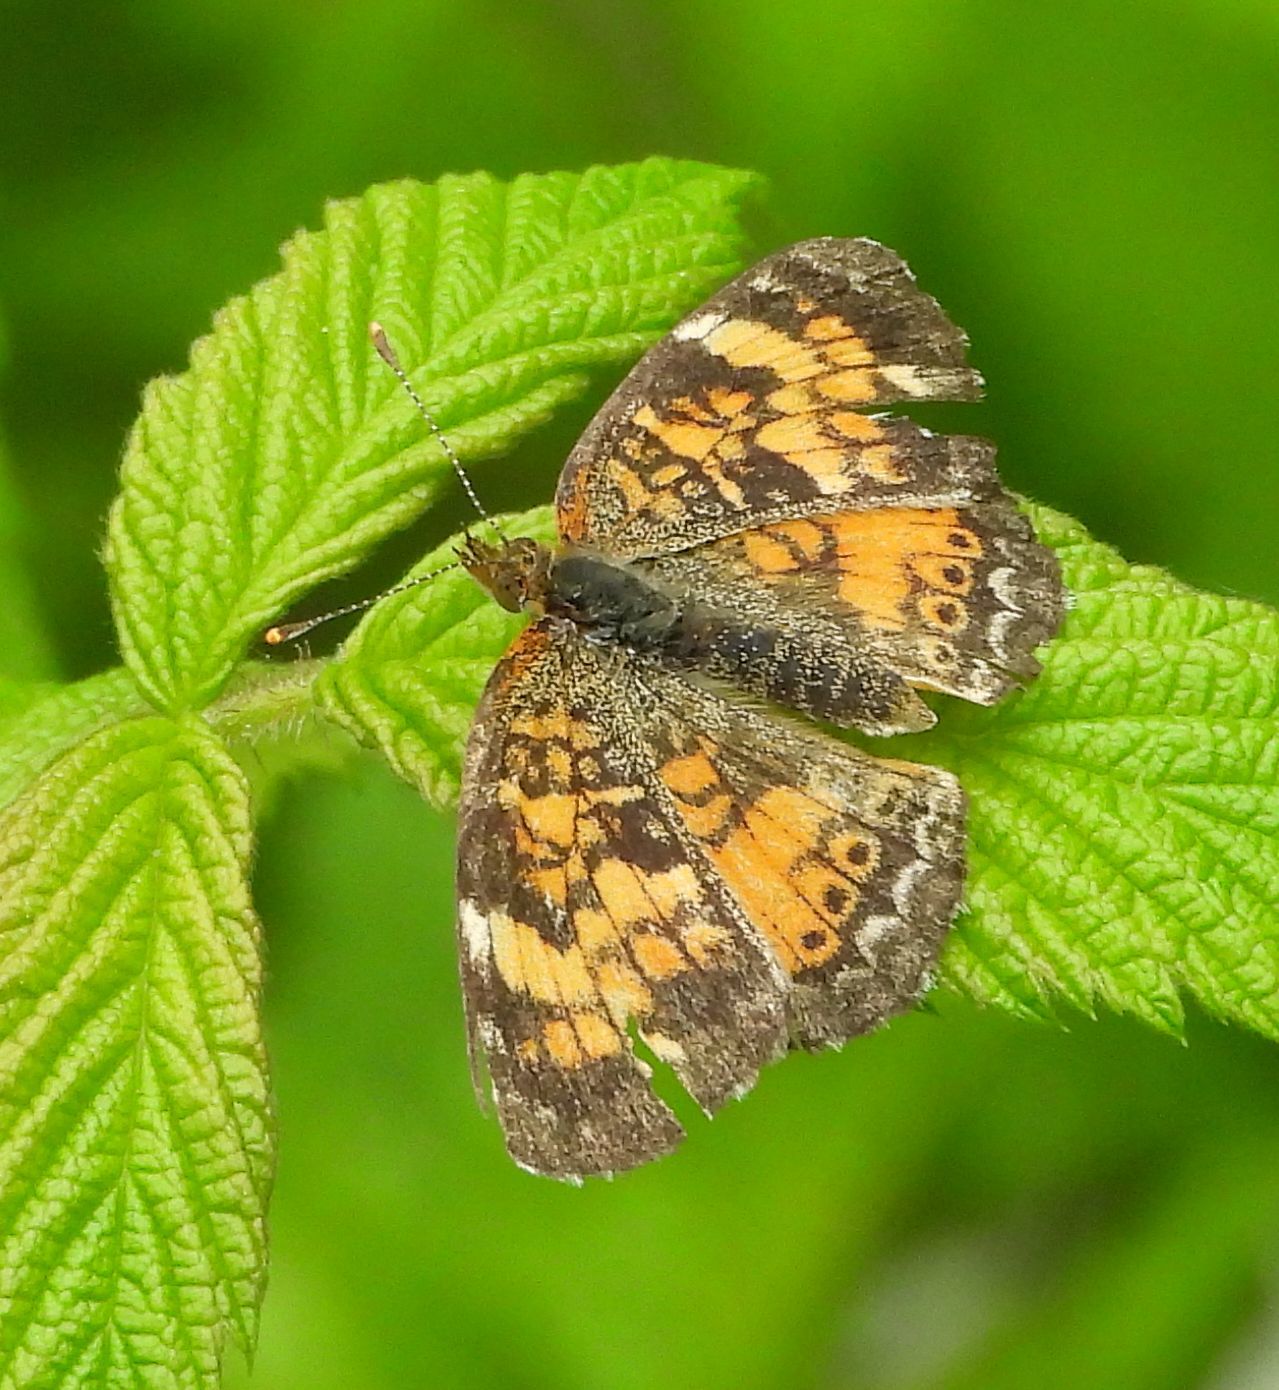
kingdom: Animalia
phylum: Arthropoda
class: Insecta
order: Lepidoptera
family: Nymphalidae
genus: Phyciodes
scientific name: Phyciodes tharos
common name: Pearl crescent
